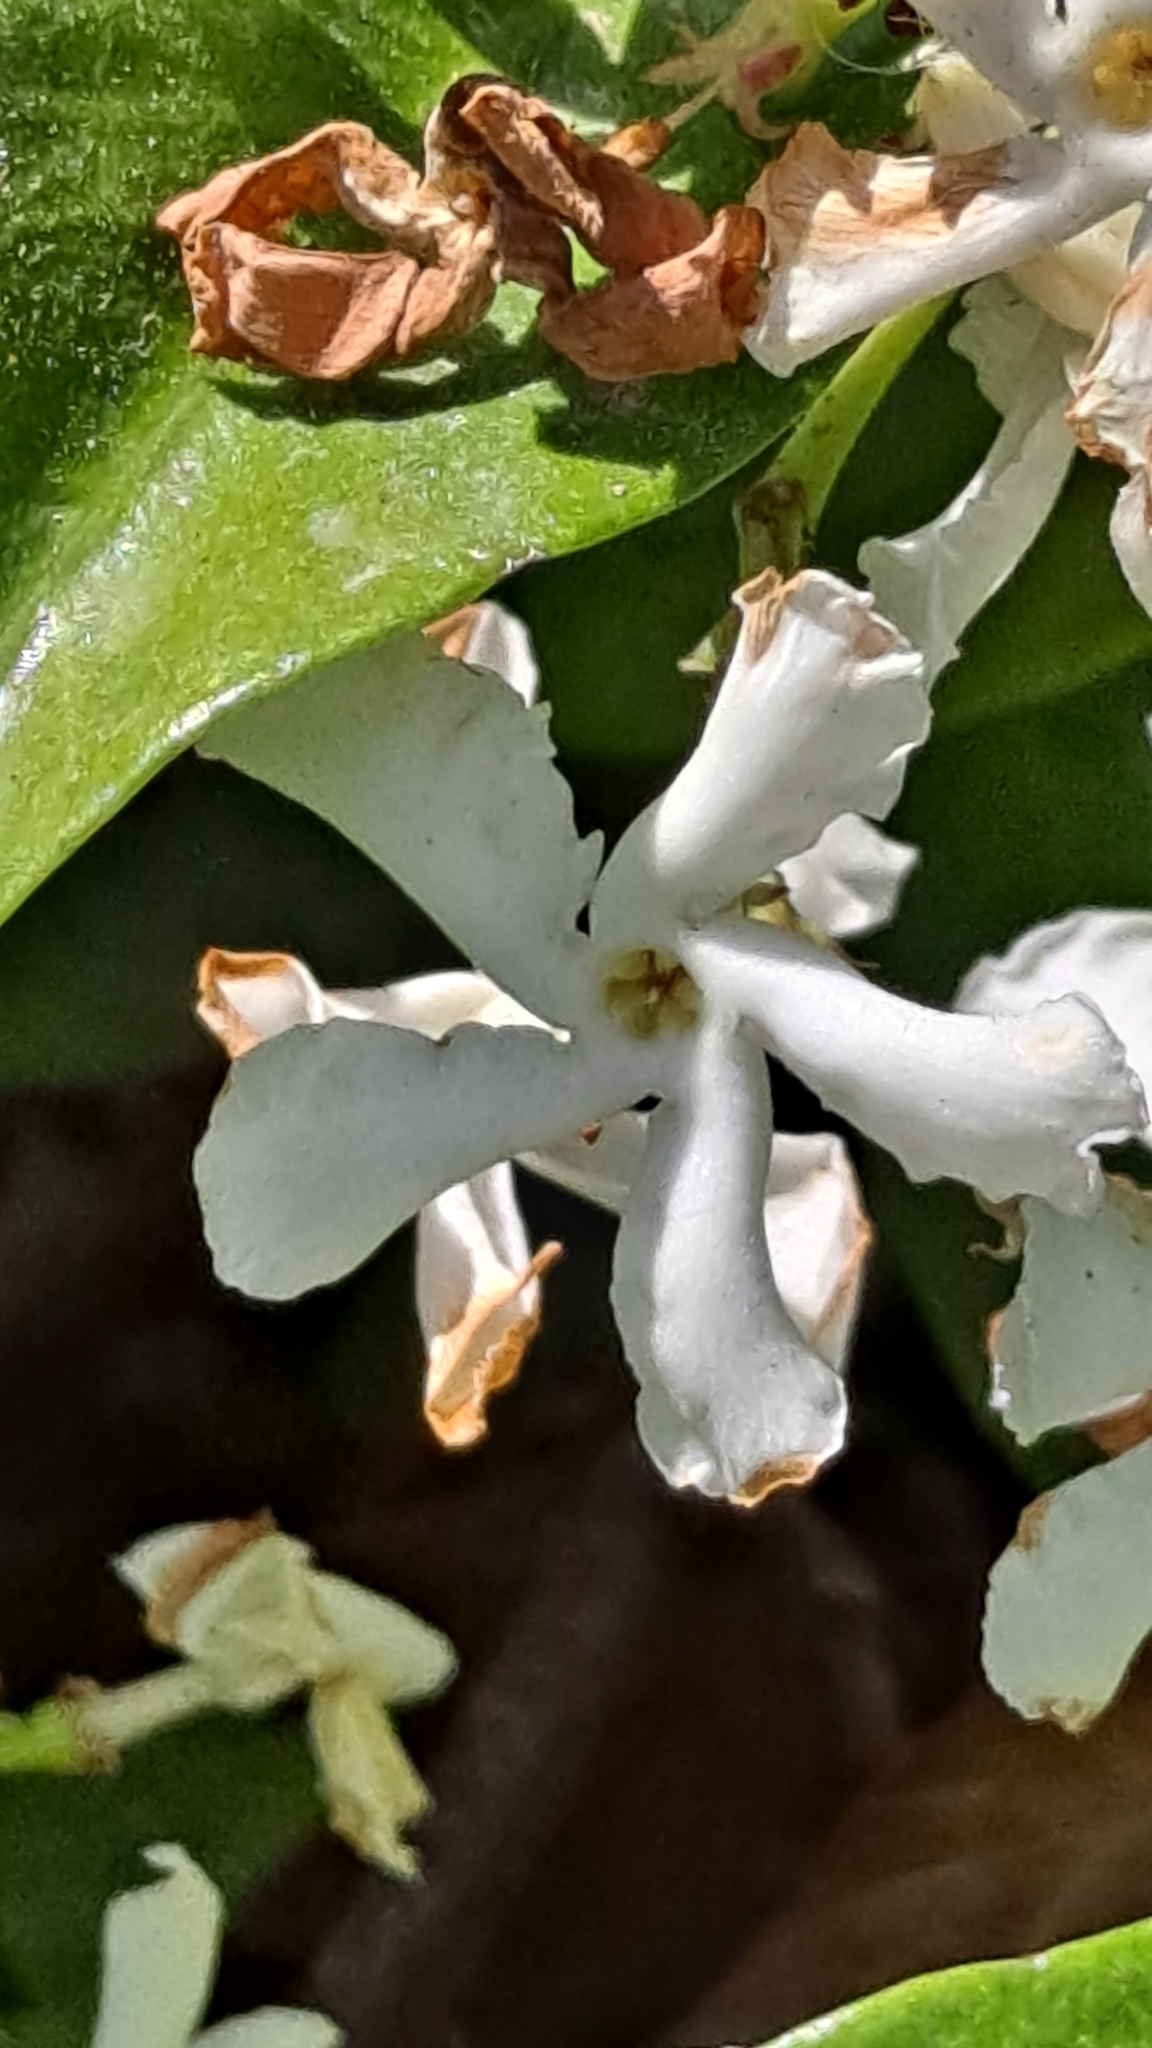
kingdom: Plantae
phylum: Tracheophyta
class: Magnoliopsida
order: Gentianales
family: Apocynaceae
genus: Trachelospermum
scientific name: Trachelospermum jasminoides
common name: Confederate jasmine
